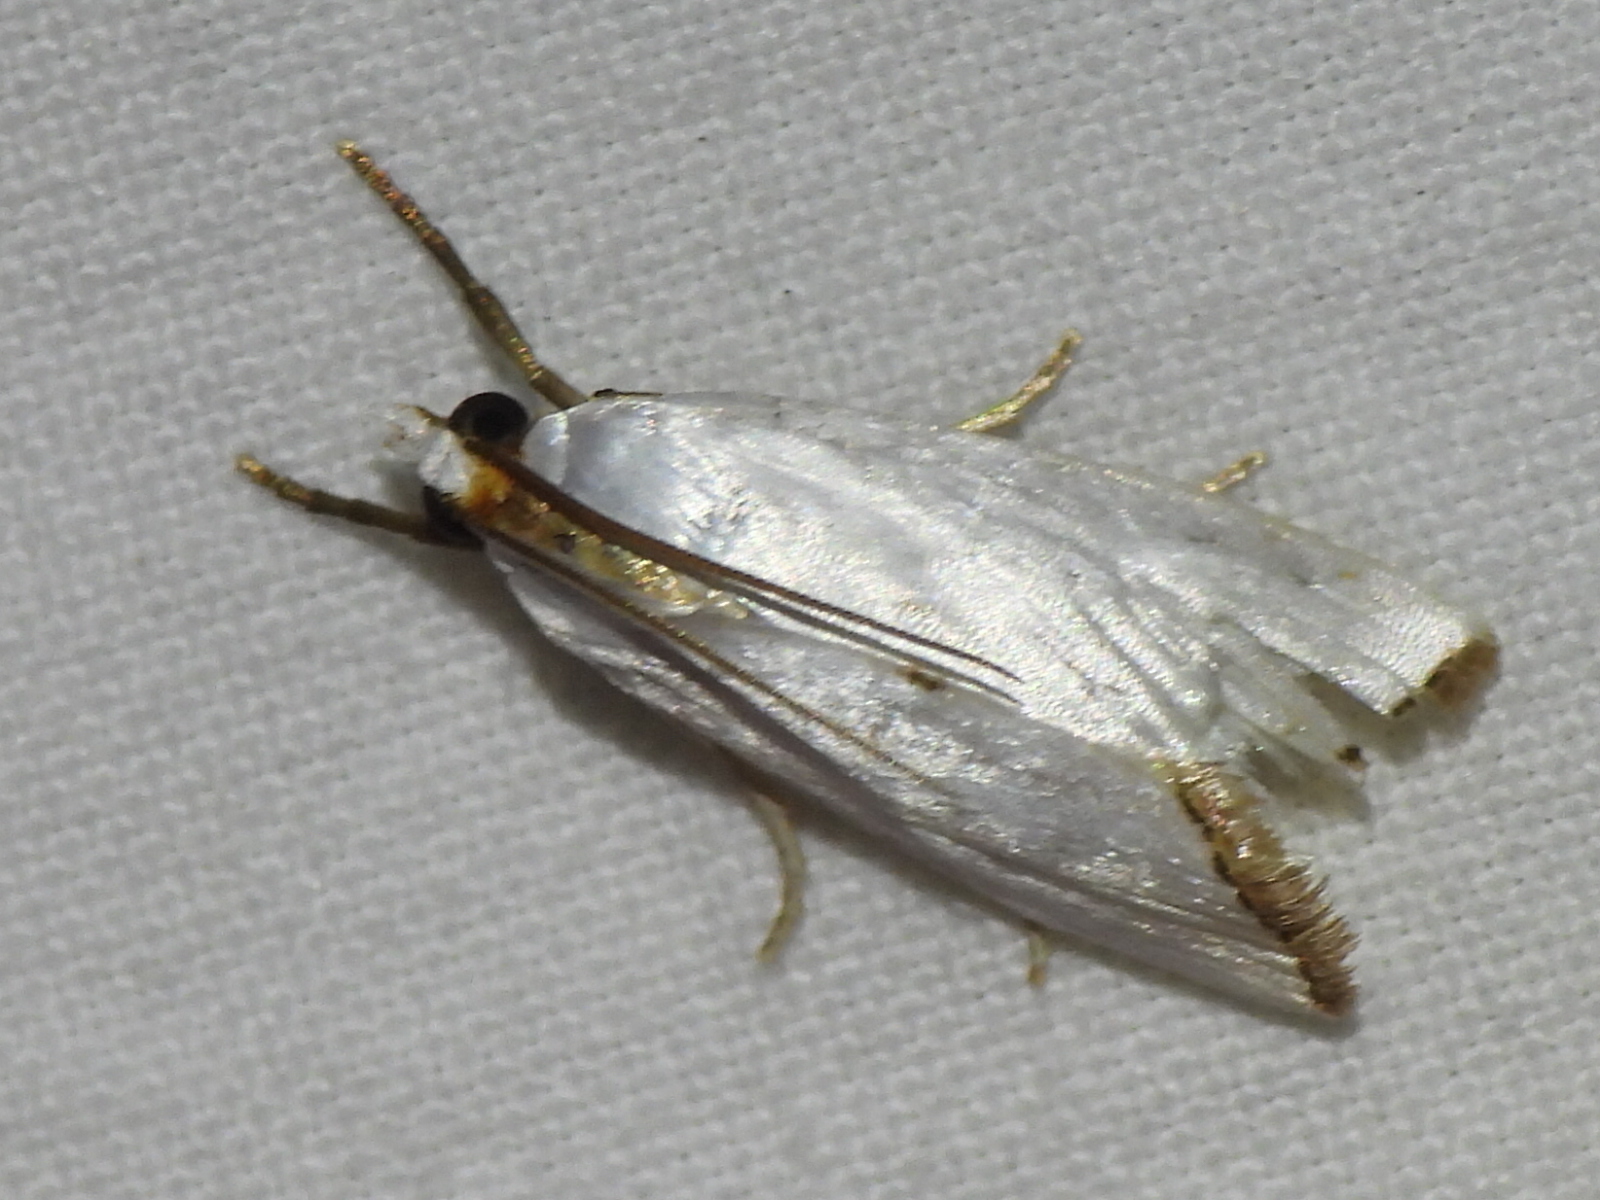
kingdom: Animalia
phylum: Arthropoda
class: Insecta
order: Lepidoptera
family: Crambidae
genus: Argyria
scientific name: Argyria nivalis
